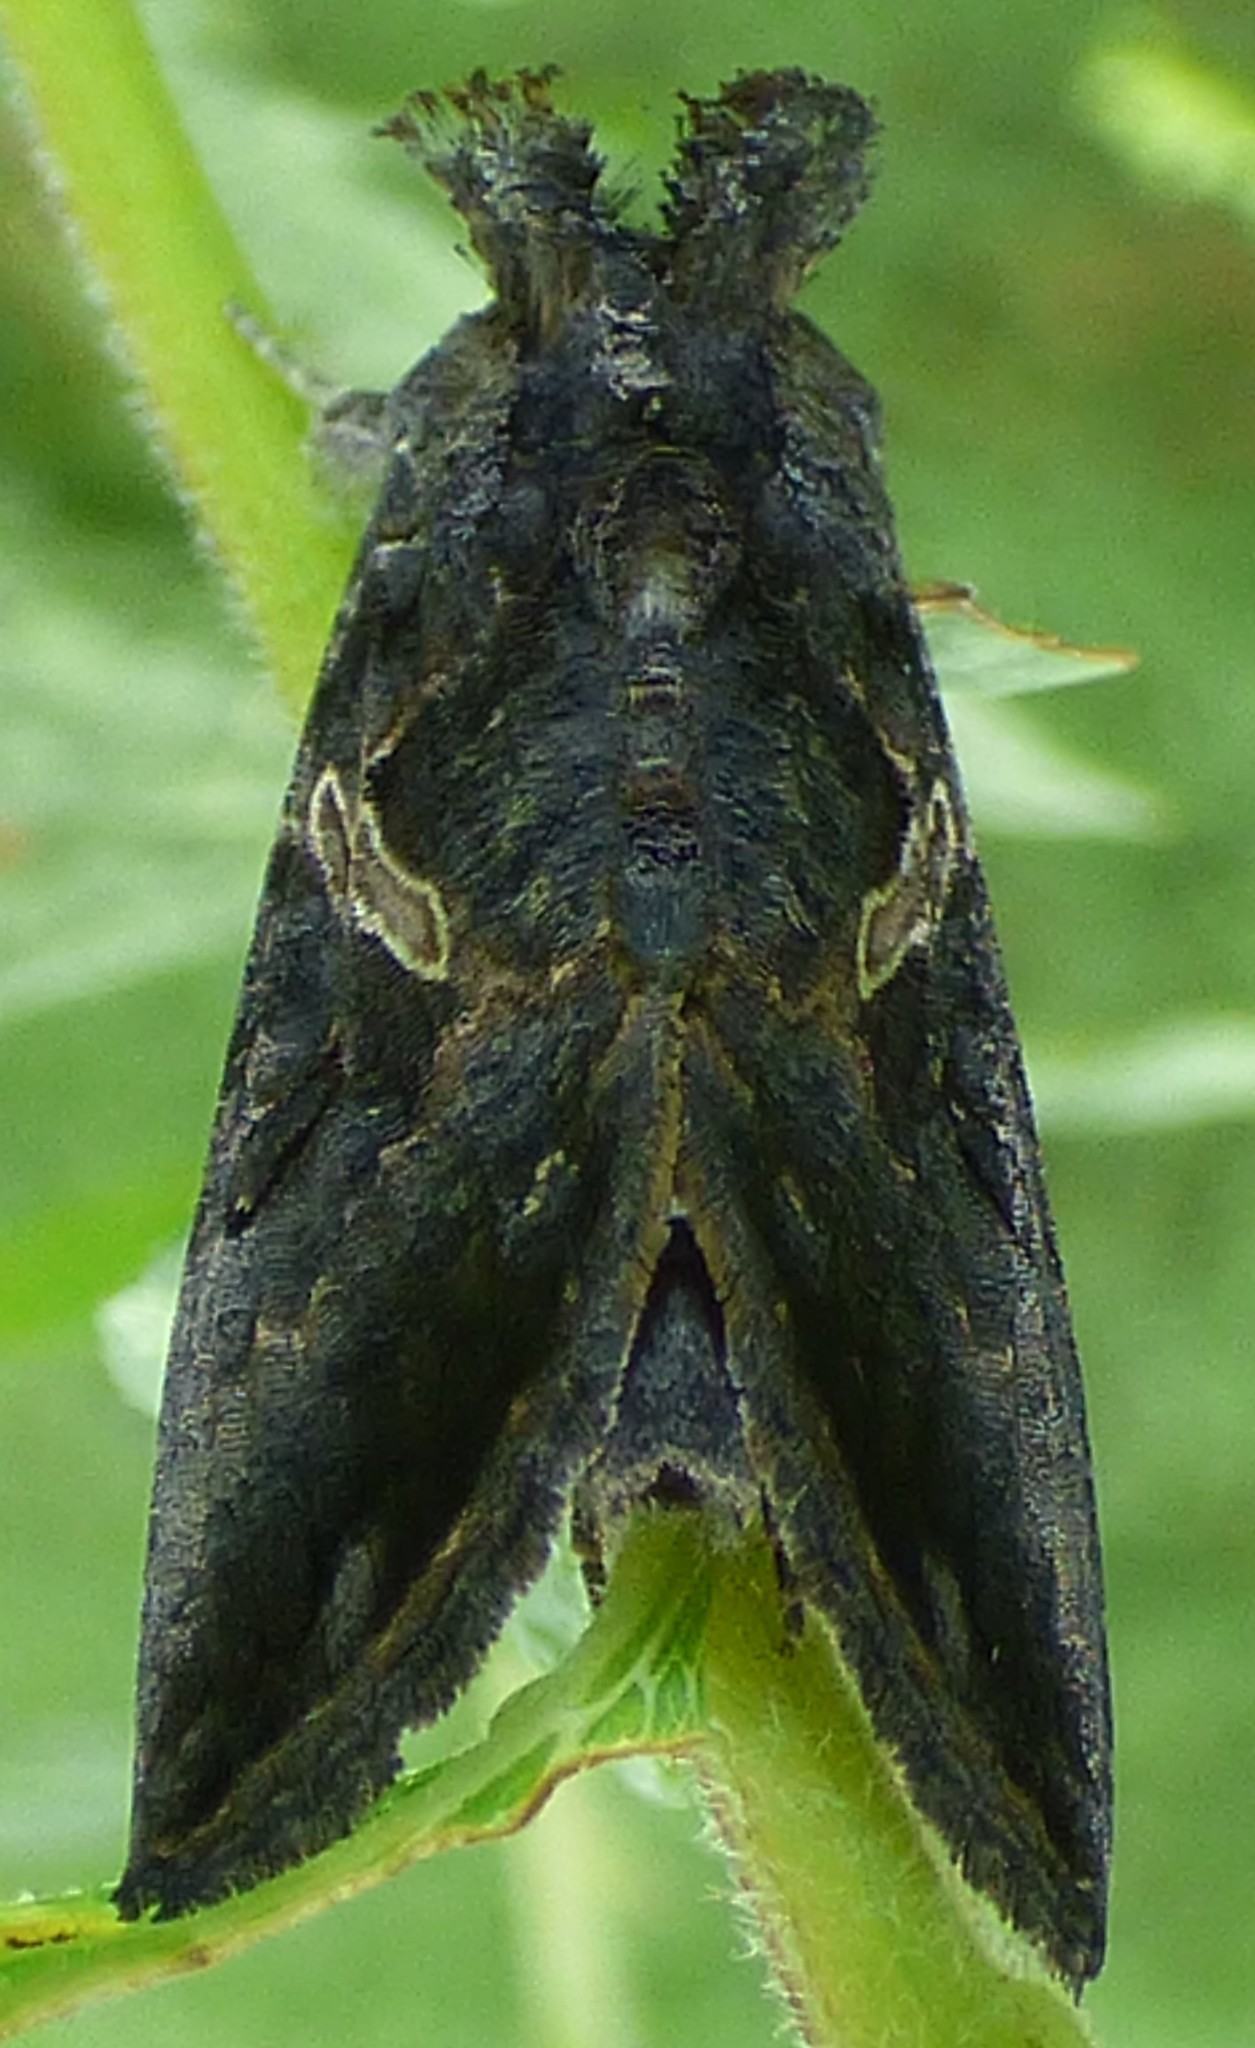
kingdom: Animalia
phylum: Arthropoda
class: Insecta
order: Lepidoptera
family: Noctuidae
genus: Ctenoplusia
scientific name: Ctenoplusia oxygramma
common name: Sharp-stigma looper moth
